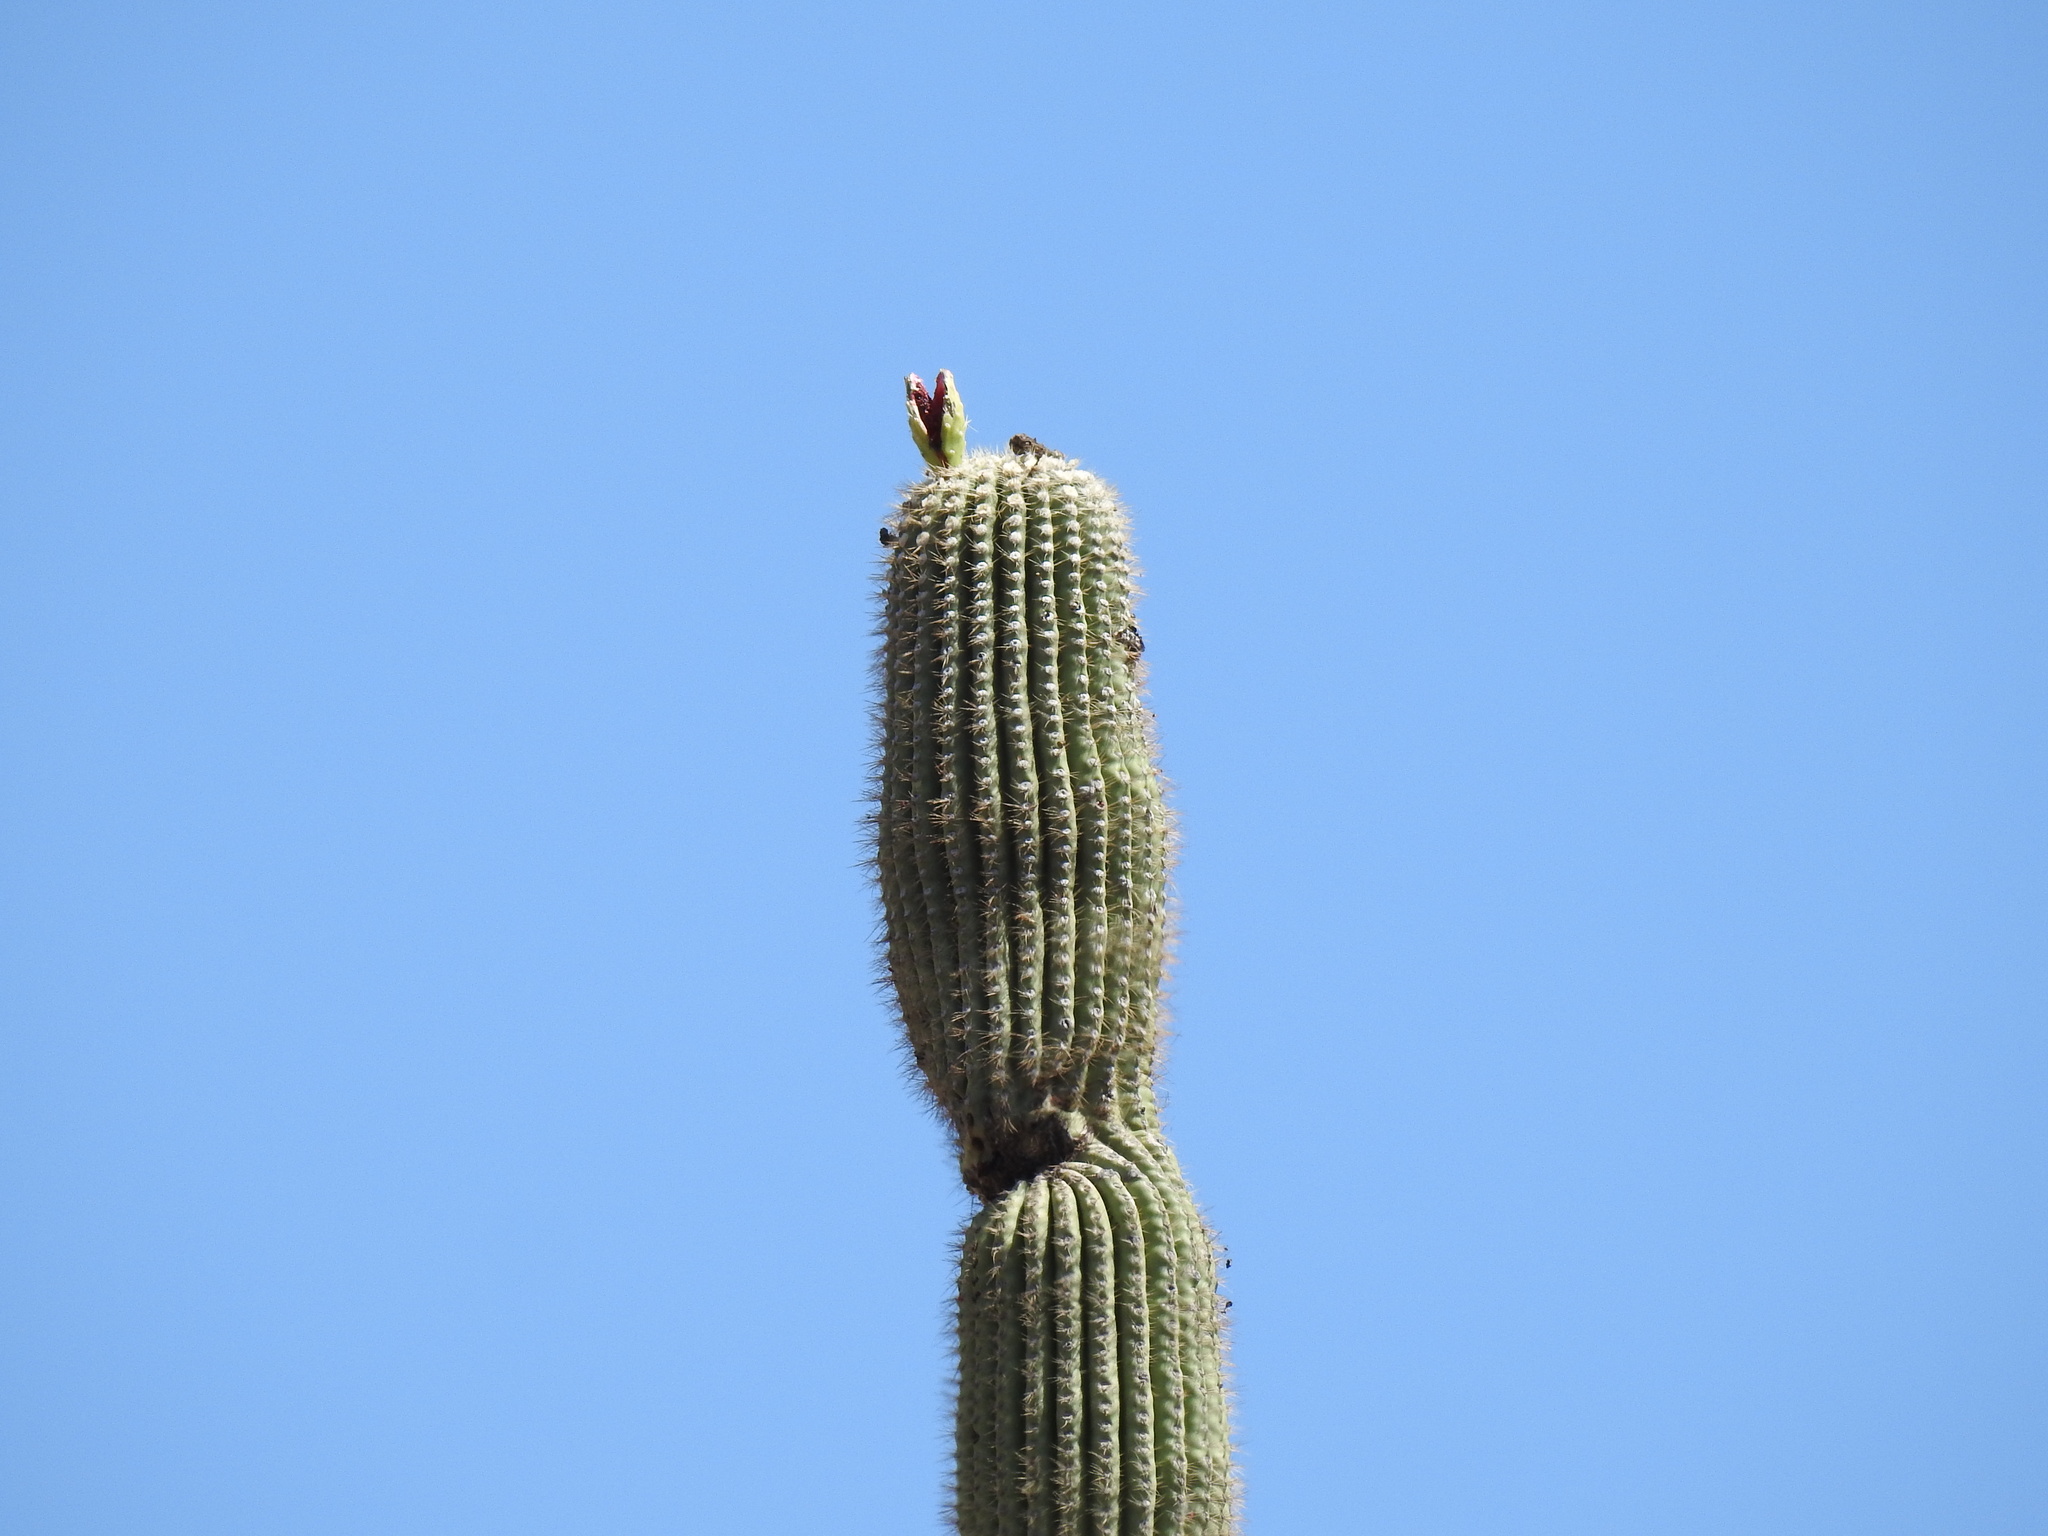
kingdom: Plantae
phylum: Tracheophyta
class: Magnoliopsida
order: Caryophyllales
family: Cactaceae
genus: Carnegiea
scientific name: Carnegiea gigantea
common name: Saguaro
